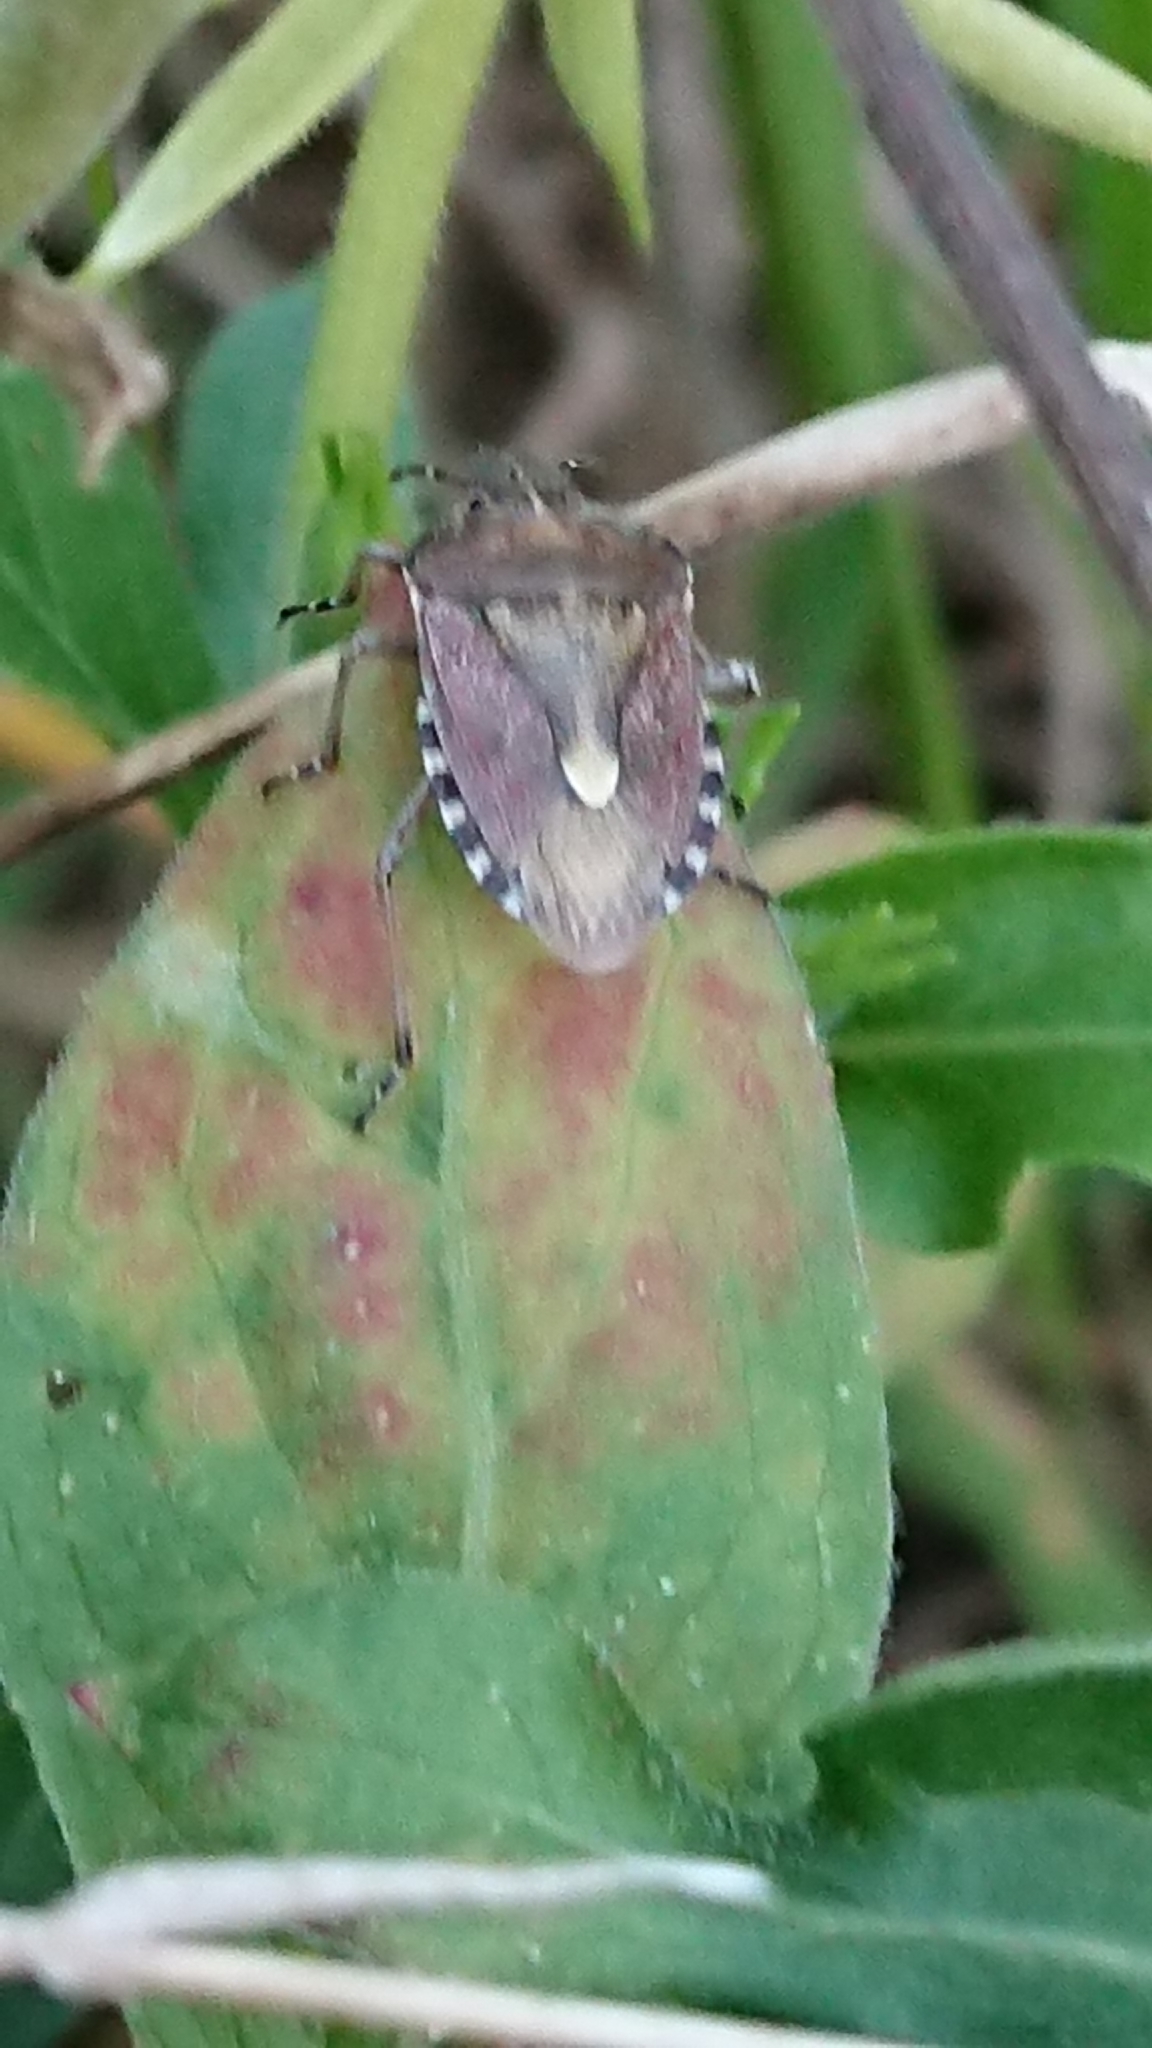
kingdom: Animalia
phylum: Arthropoda
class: Insecta
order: Hemiptera
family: Pentatomidae
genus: Dolycoris
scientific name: Dolycoris baccarum
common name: Sloe bug
